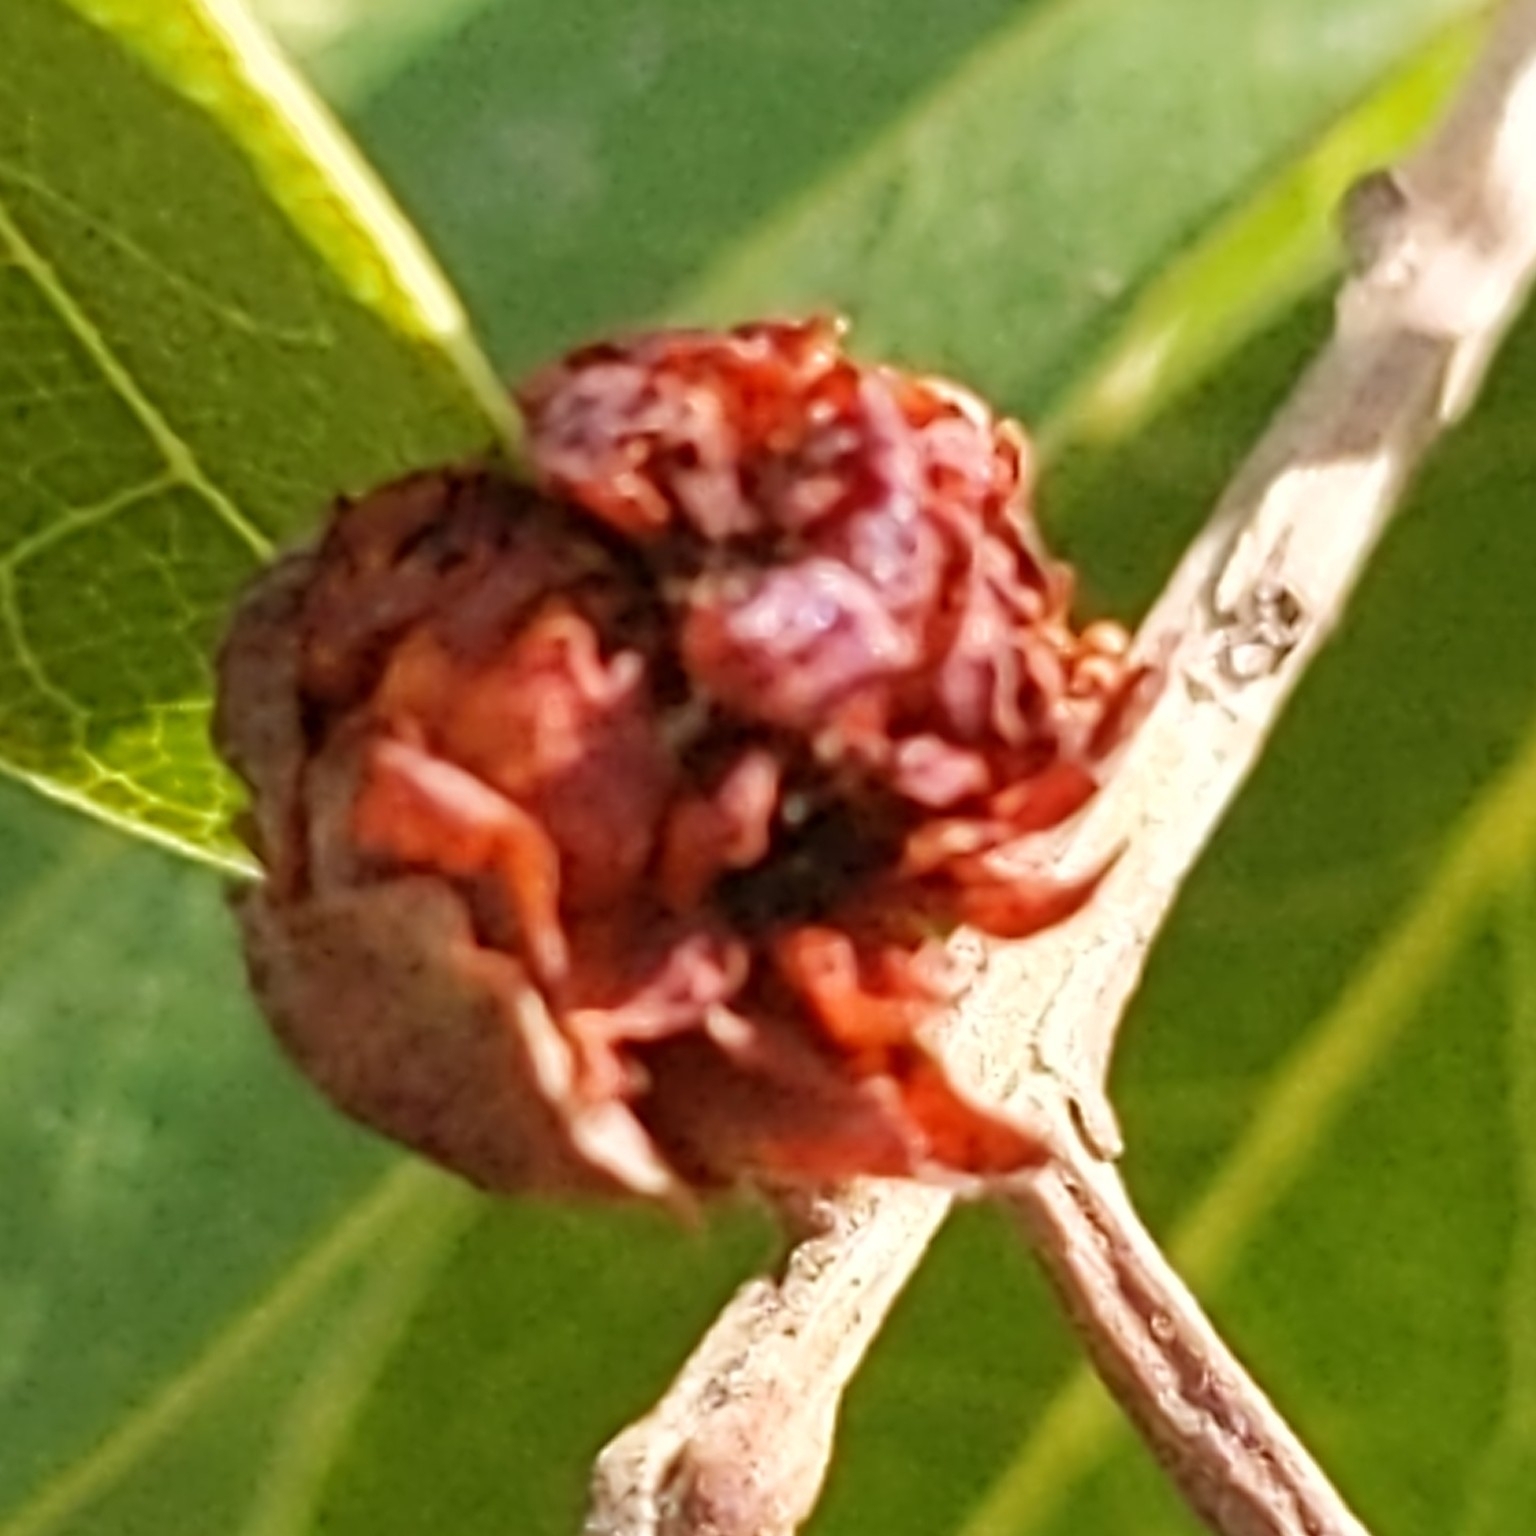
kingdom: Plantae
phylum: Tracheophyta
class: Magnoliopsida
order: Laurales
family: Lauraceae
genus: Umbellularia
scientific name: Umbellularia californica
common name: California bay
